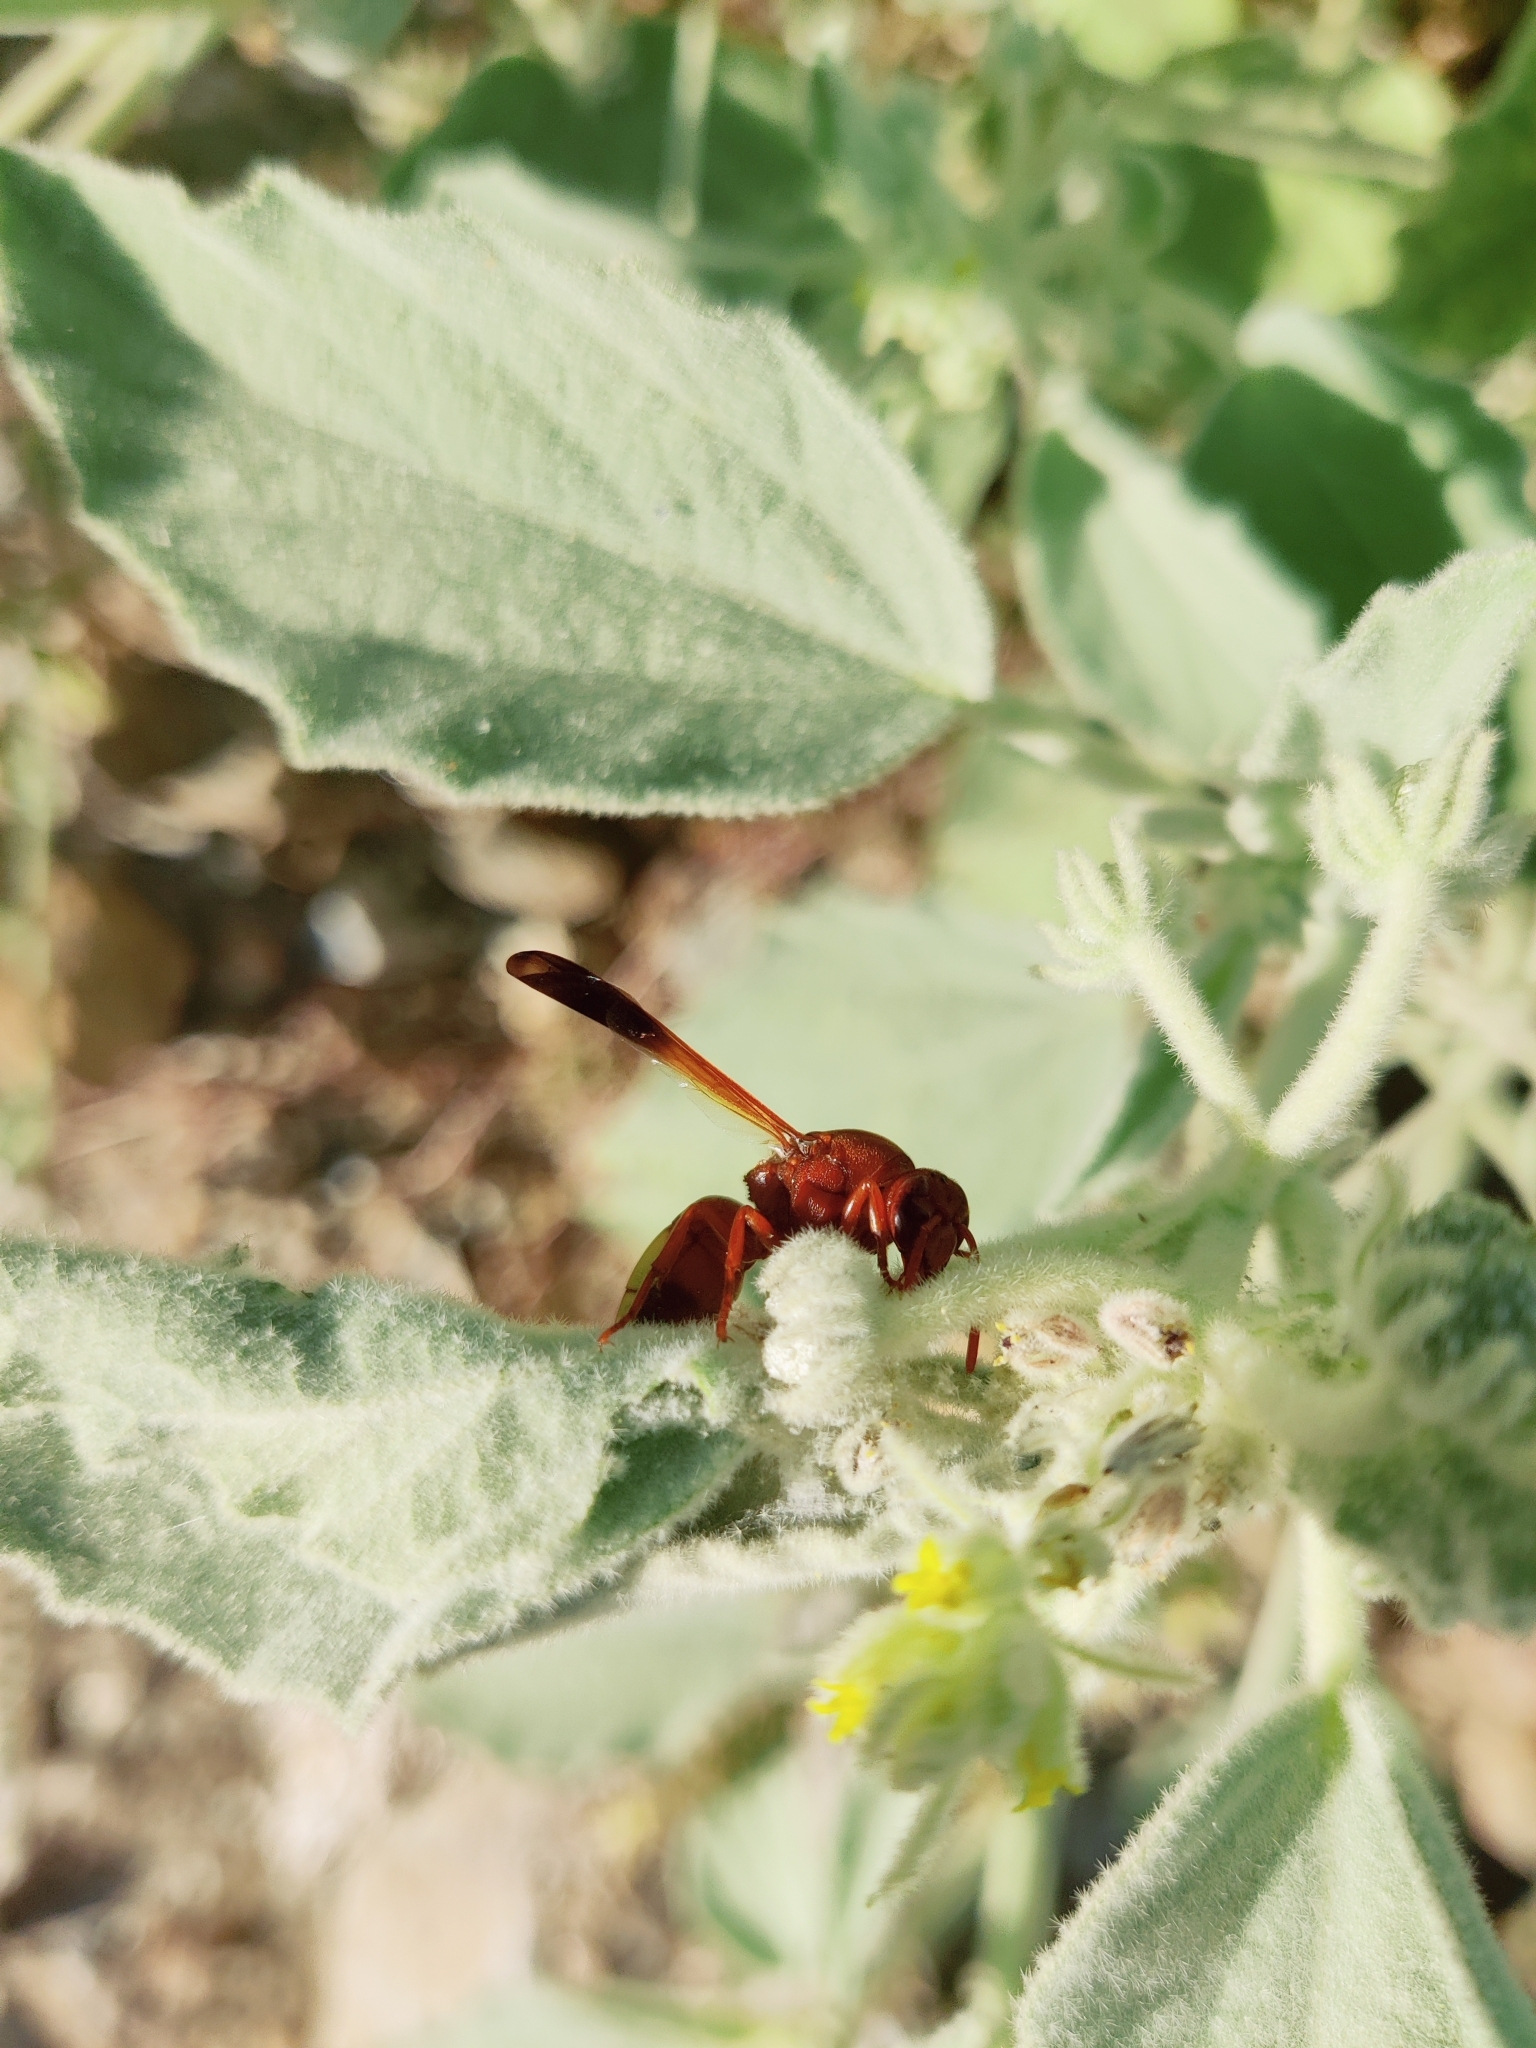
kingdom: Animalia
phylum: Arthropoda
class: Insecta
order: Hymenoptera
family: Eumenidae
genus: Rhynchium
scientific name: Rhynchium oculatum
